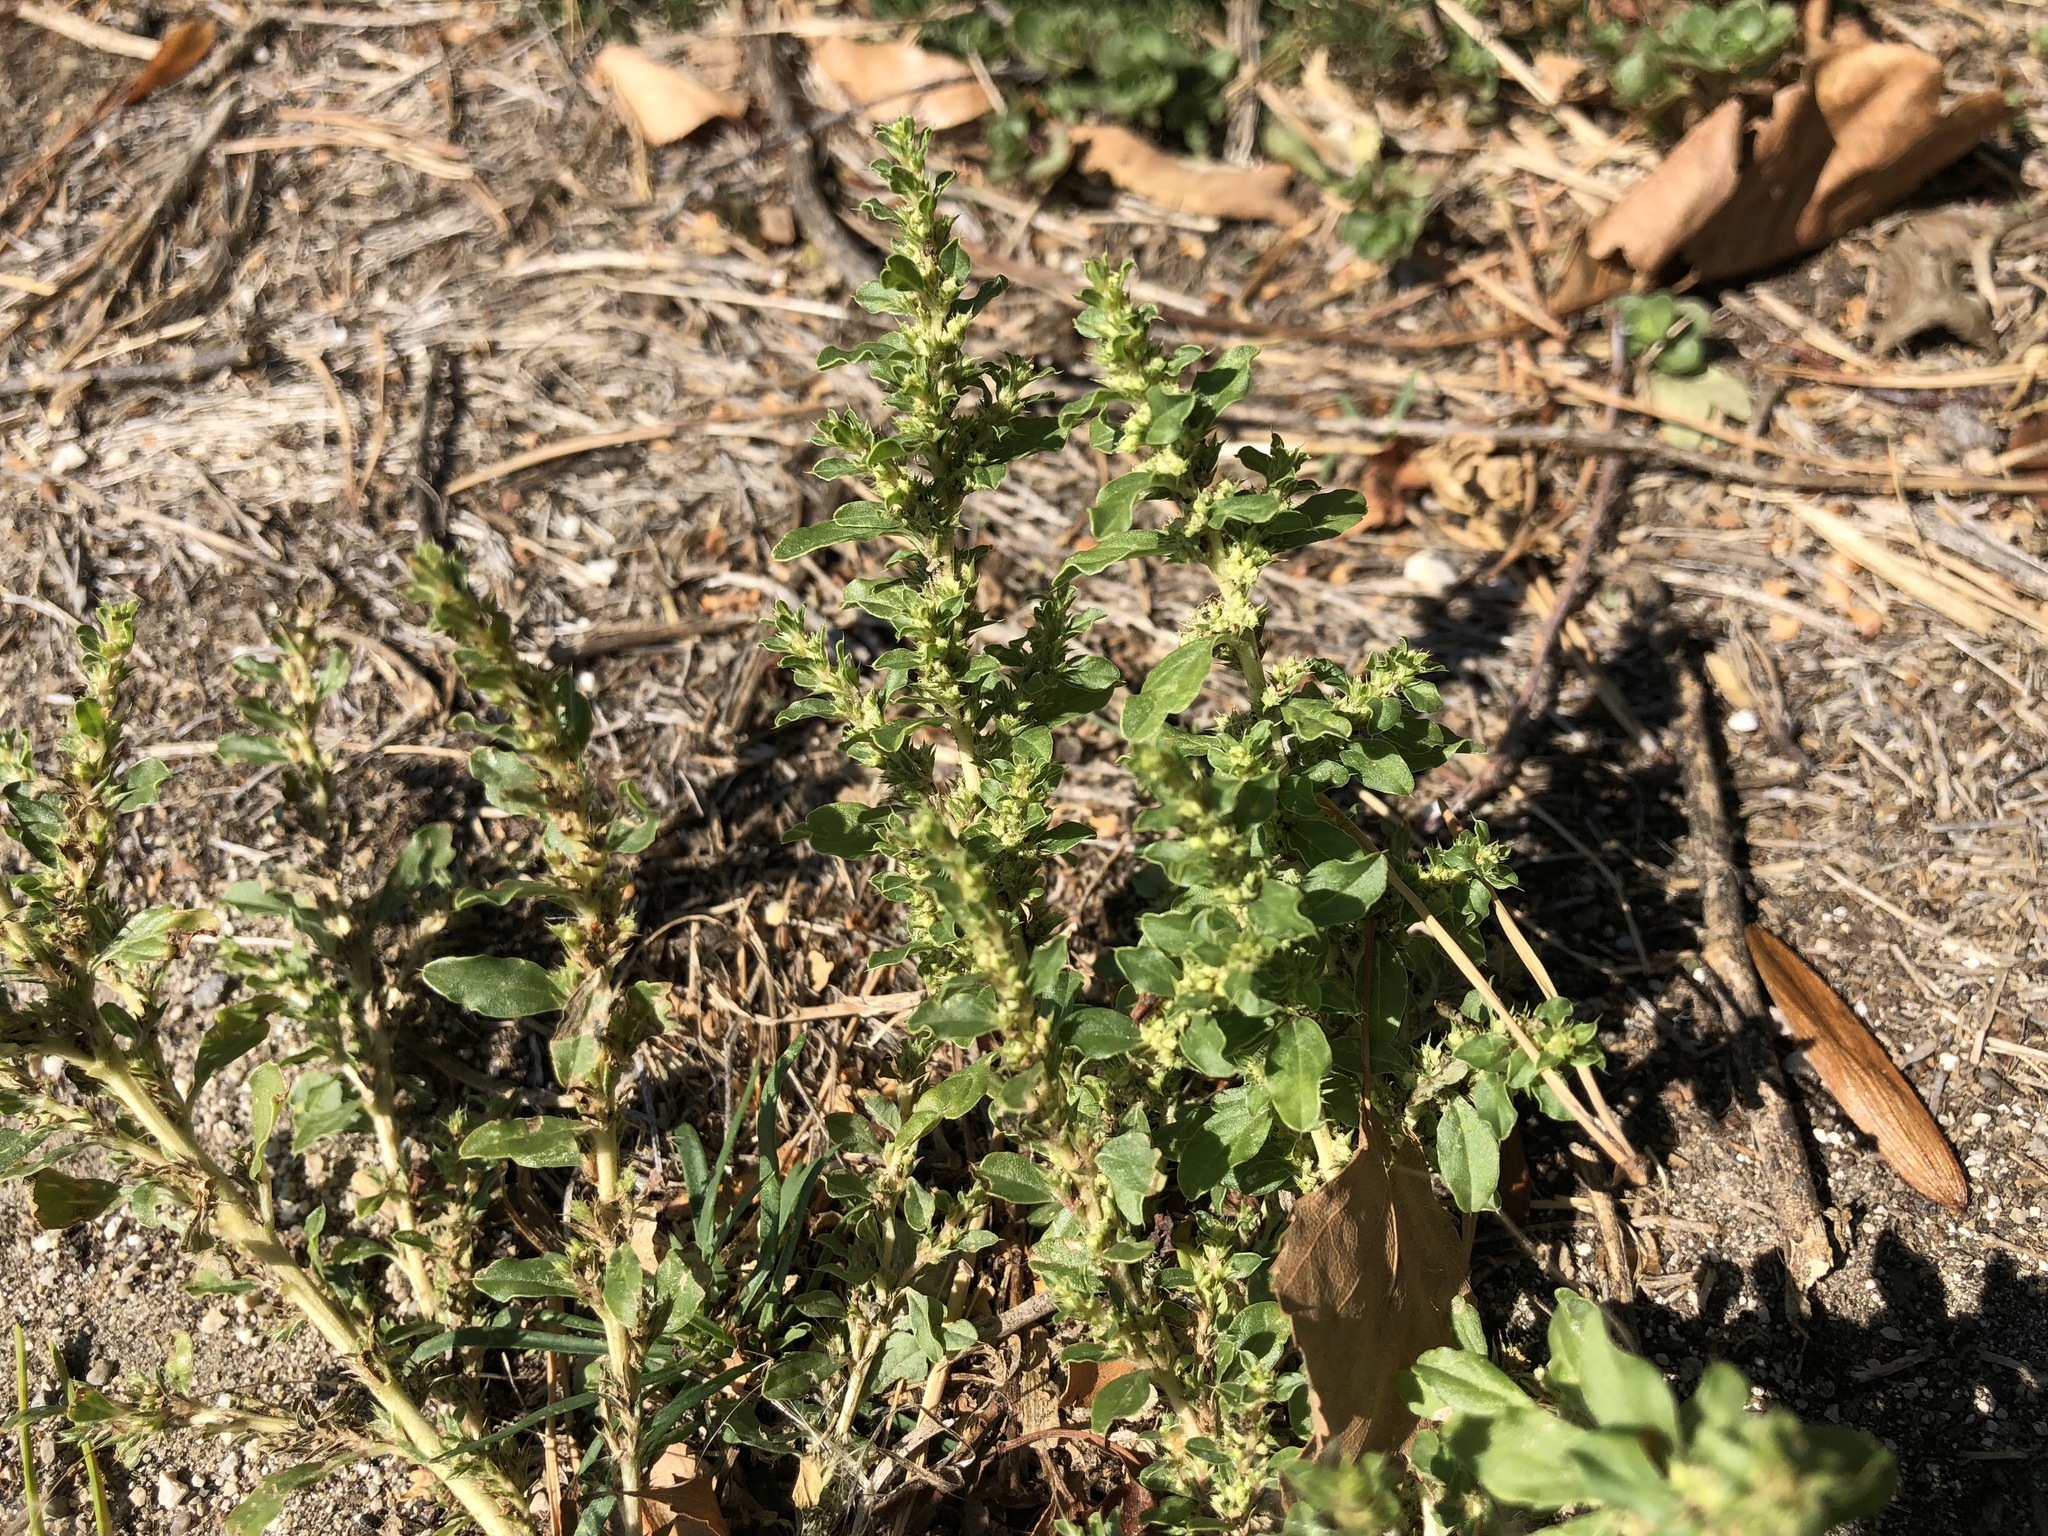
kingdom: Plantae
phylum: Tracheophyta
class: Magnoliopsida
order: Caryophyllales
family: Amaranthaceae
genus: Amaranthus
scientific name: Amaranthus albus
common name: White pigweed
